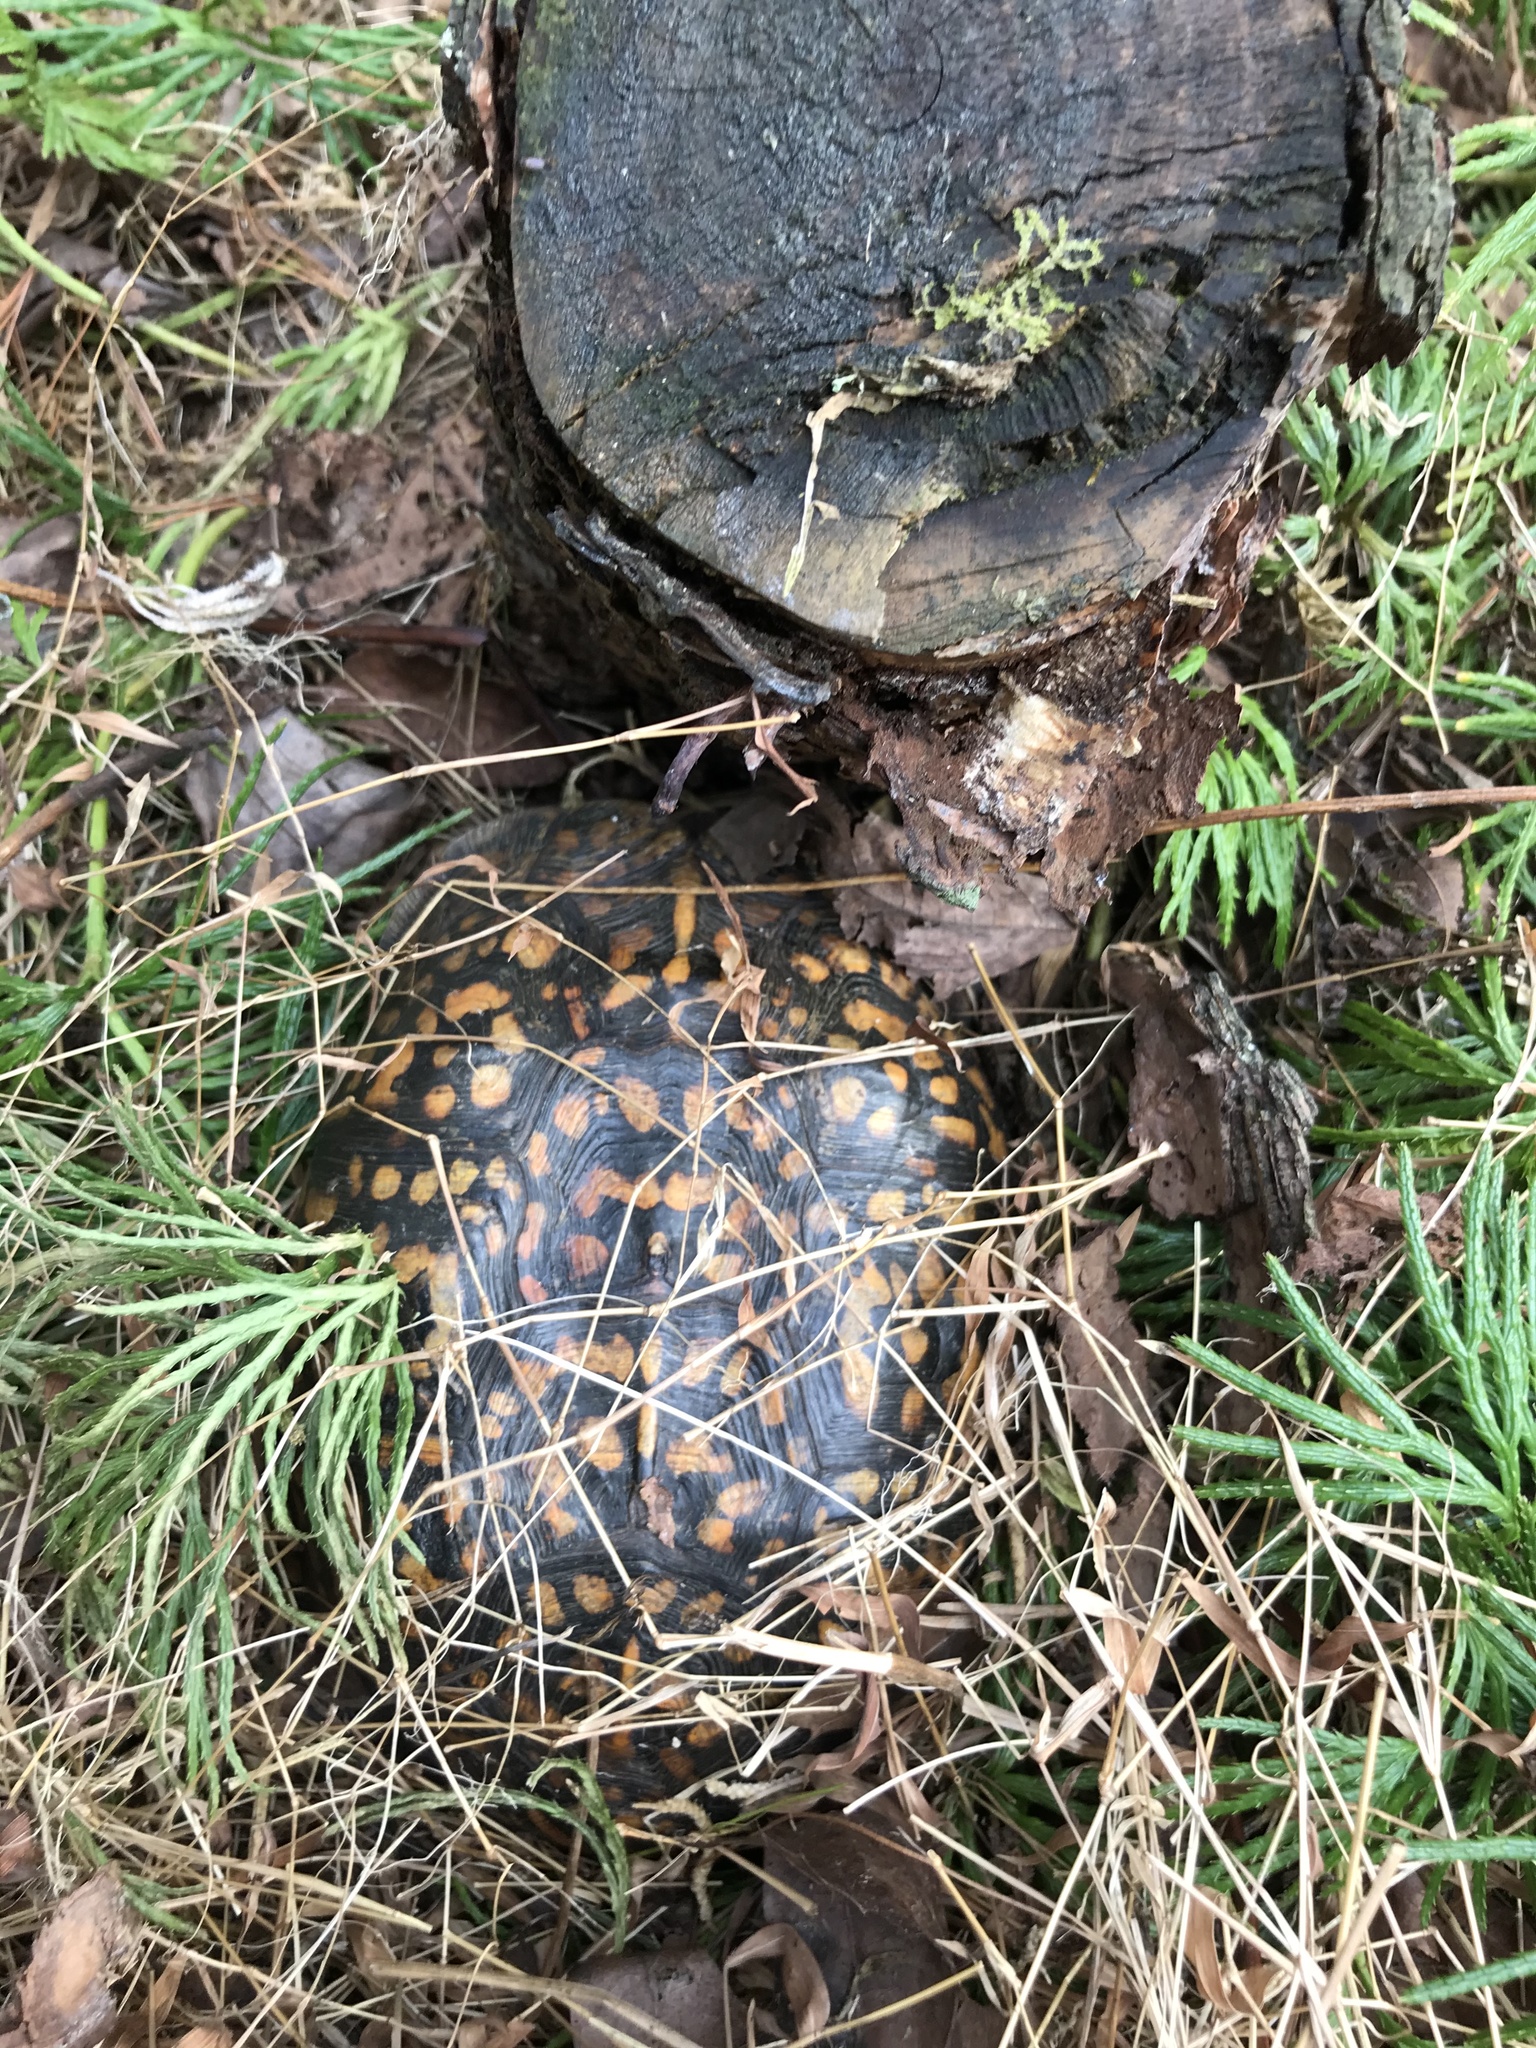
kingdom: Animalia
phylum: Chordata
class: Testudines
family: Emydidae
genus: Terrapene
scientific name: Terrapene carolina
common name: Common box turtle
